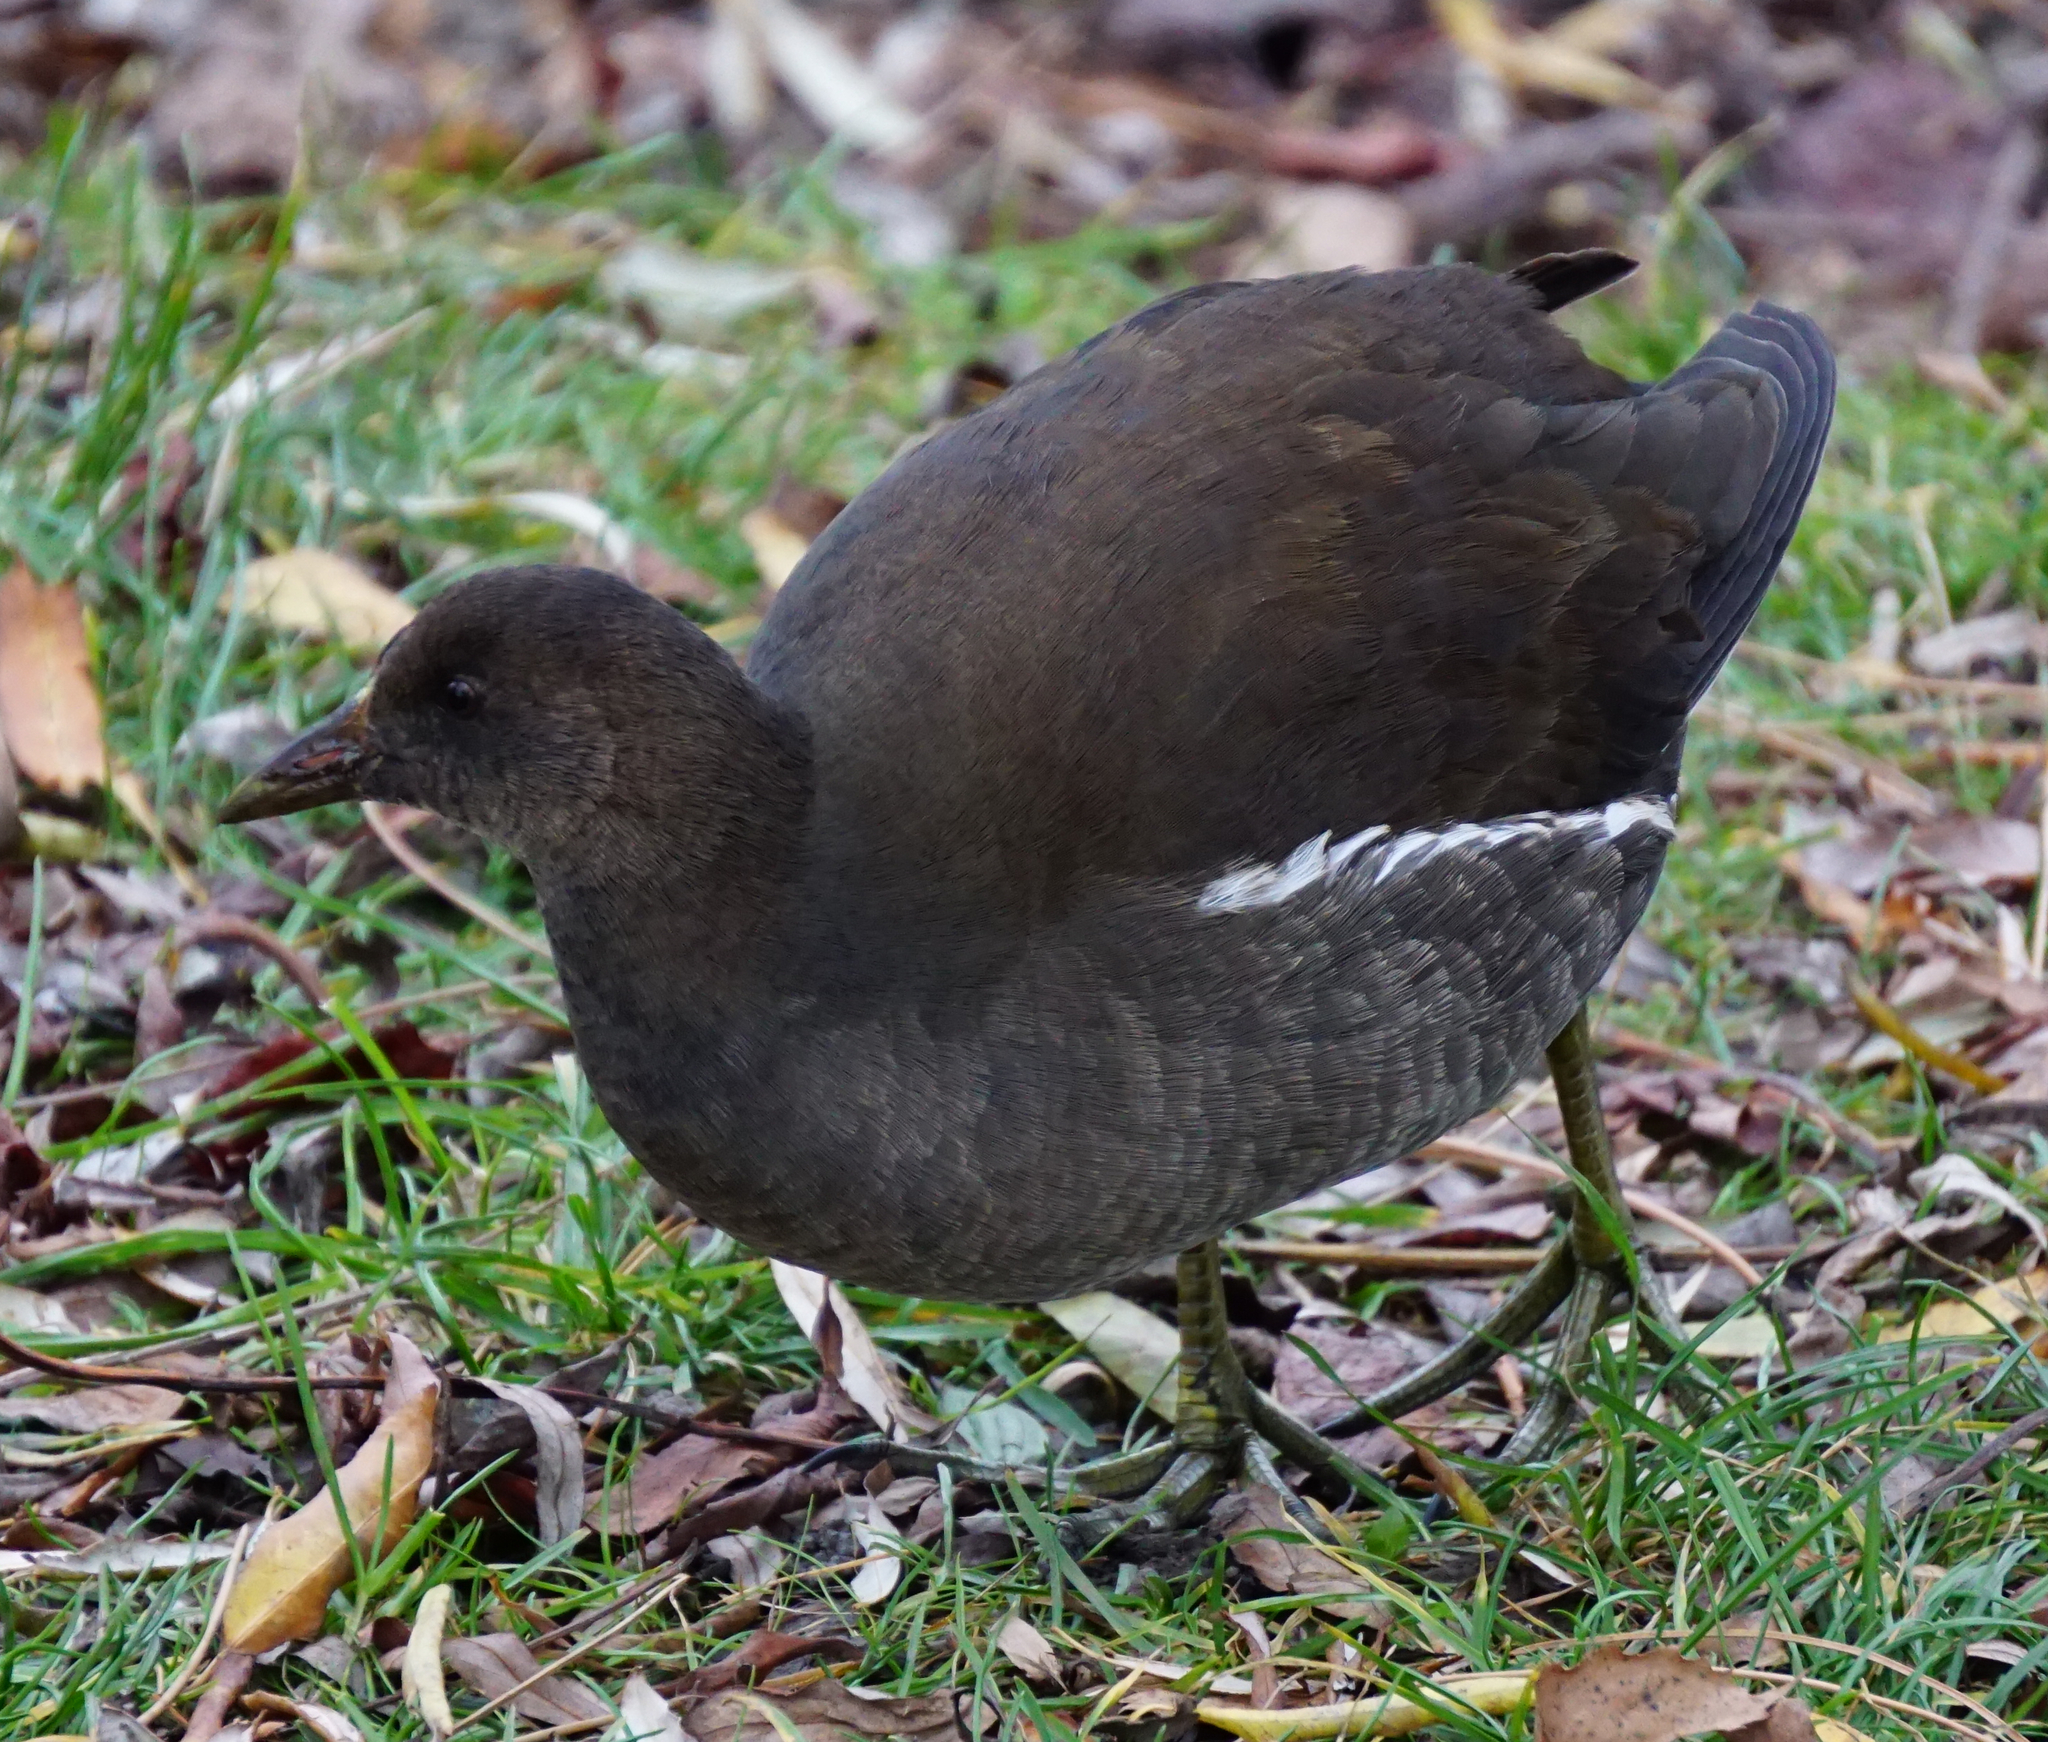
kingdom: Animalia
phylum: Chordata
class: Aves
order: Gruiformes
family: Rallidae
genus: Gallinula
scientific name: Gallinula chloropus
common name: Common moorhen
